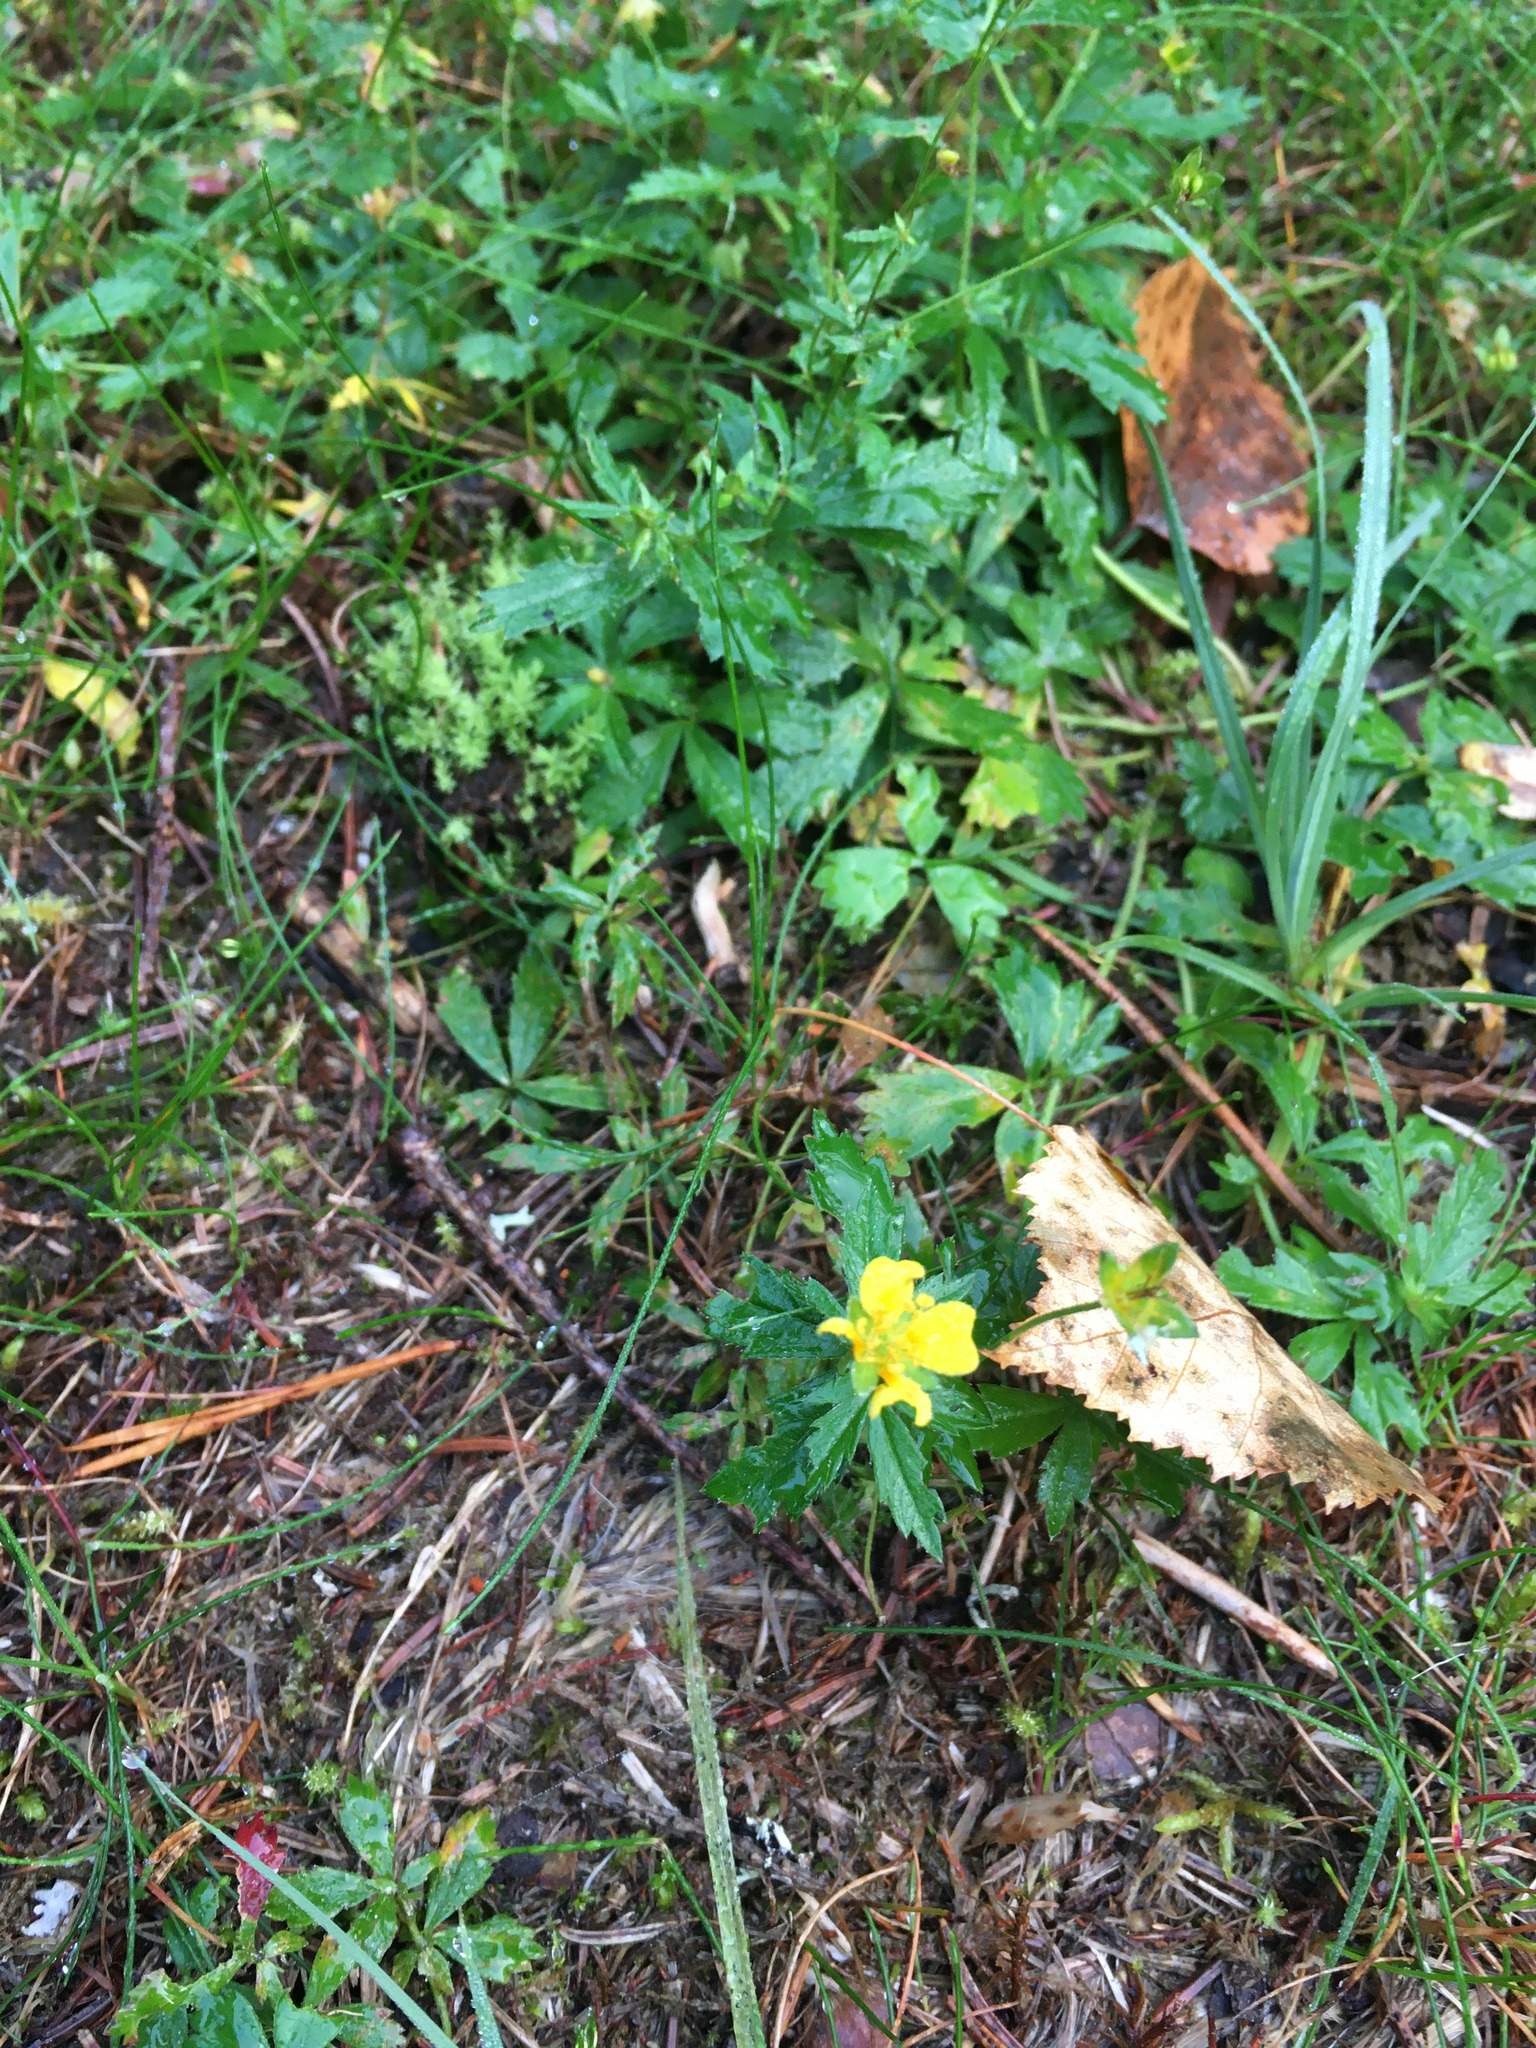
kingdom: Plantae
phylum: Tracheophyta
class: Magnoliopsida
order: Rosales
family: Rosaceae
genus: Potentilla
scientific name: Potentilla erecta
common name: Tormentil
